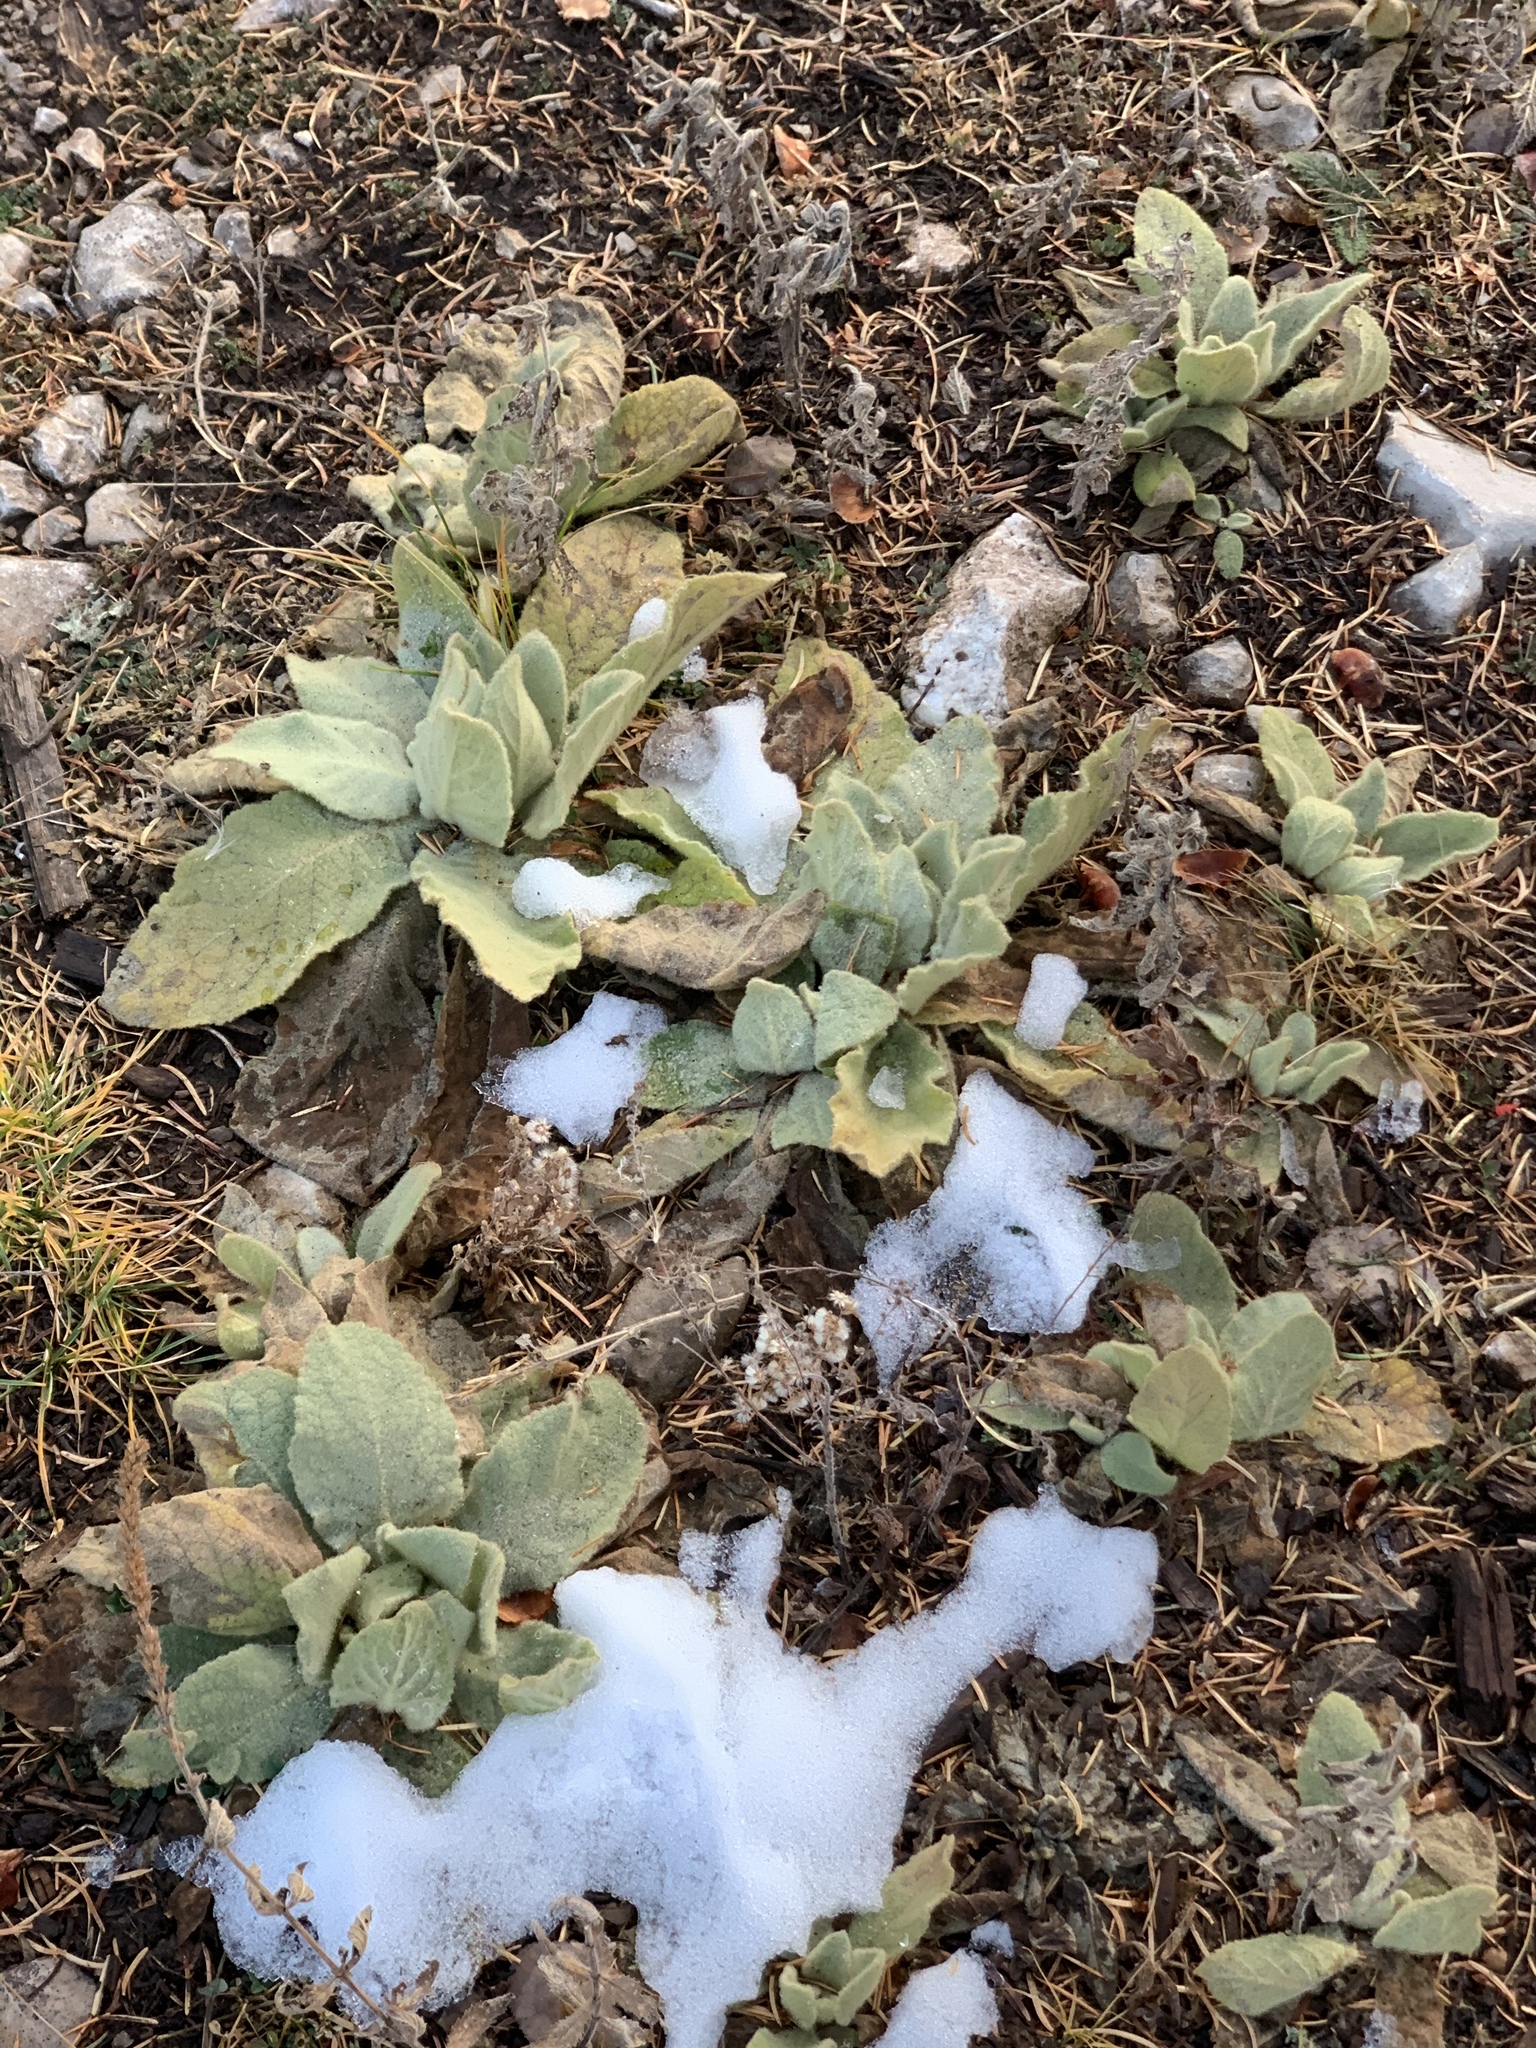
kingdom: Plantae
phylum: Tracheophyta
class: Magnoliopsida
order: Lamiales
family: Scrophulariaceae
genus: Verbascum
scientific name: Verbascum thapsus
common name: Common mullein
